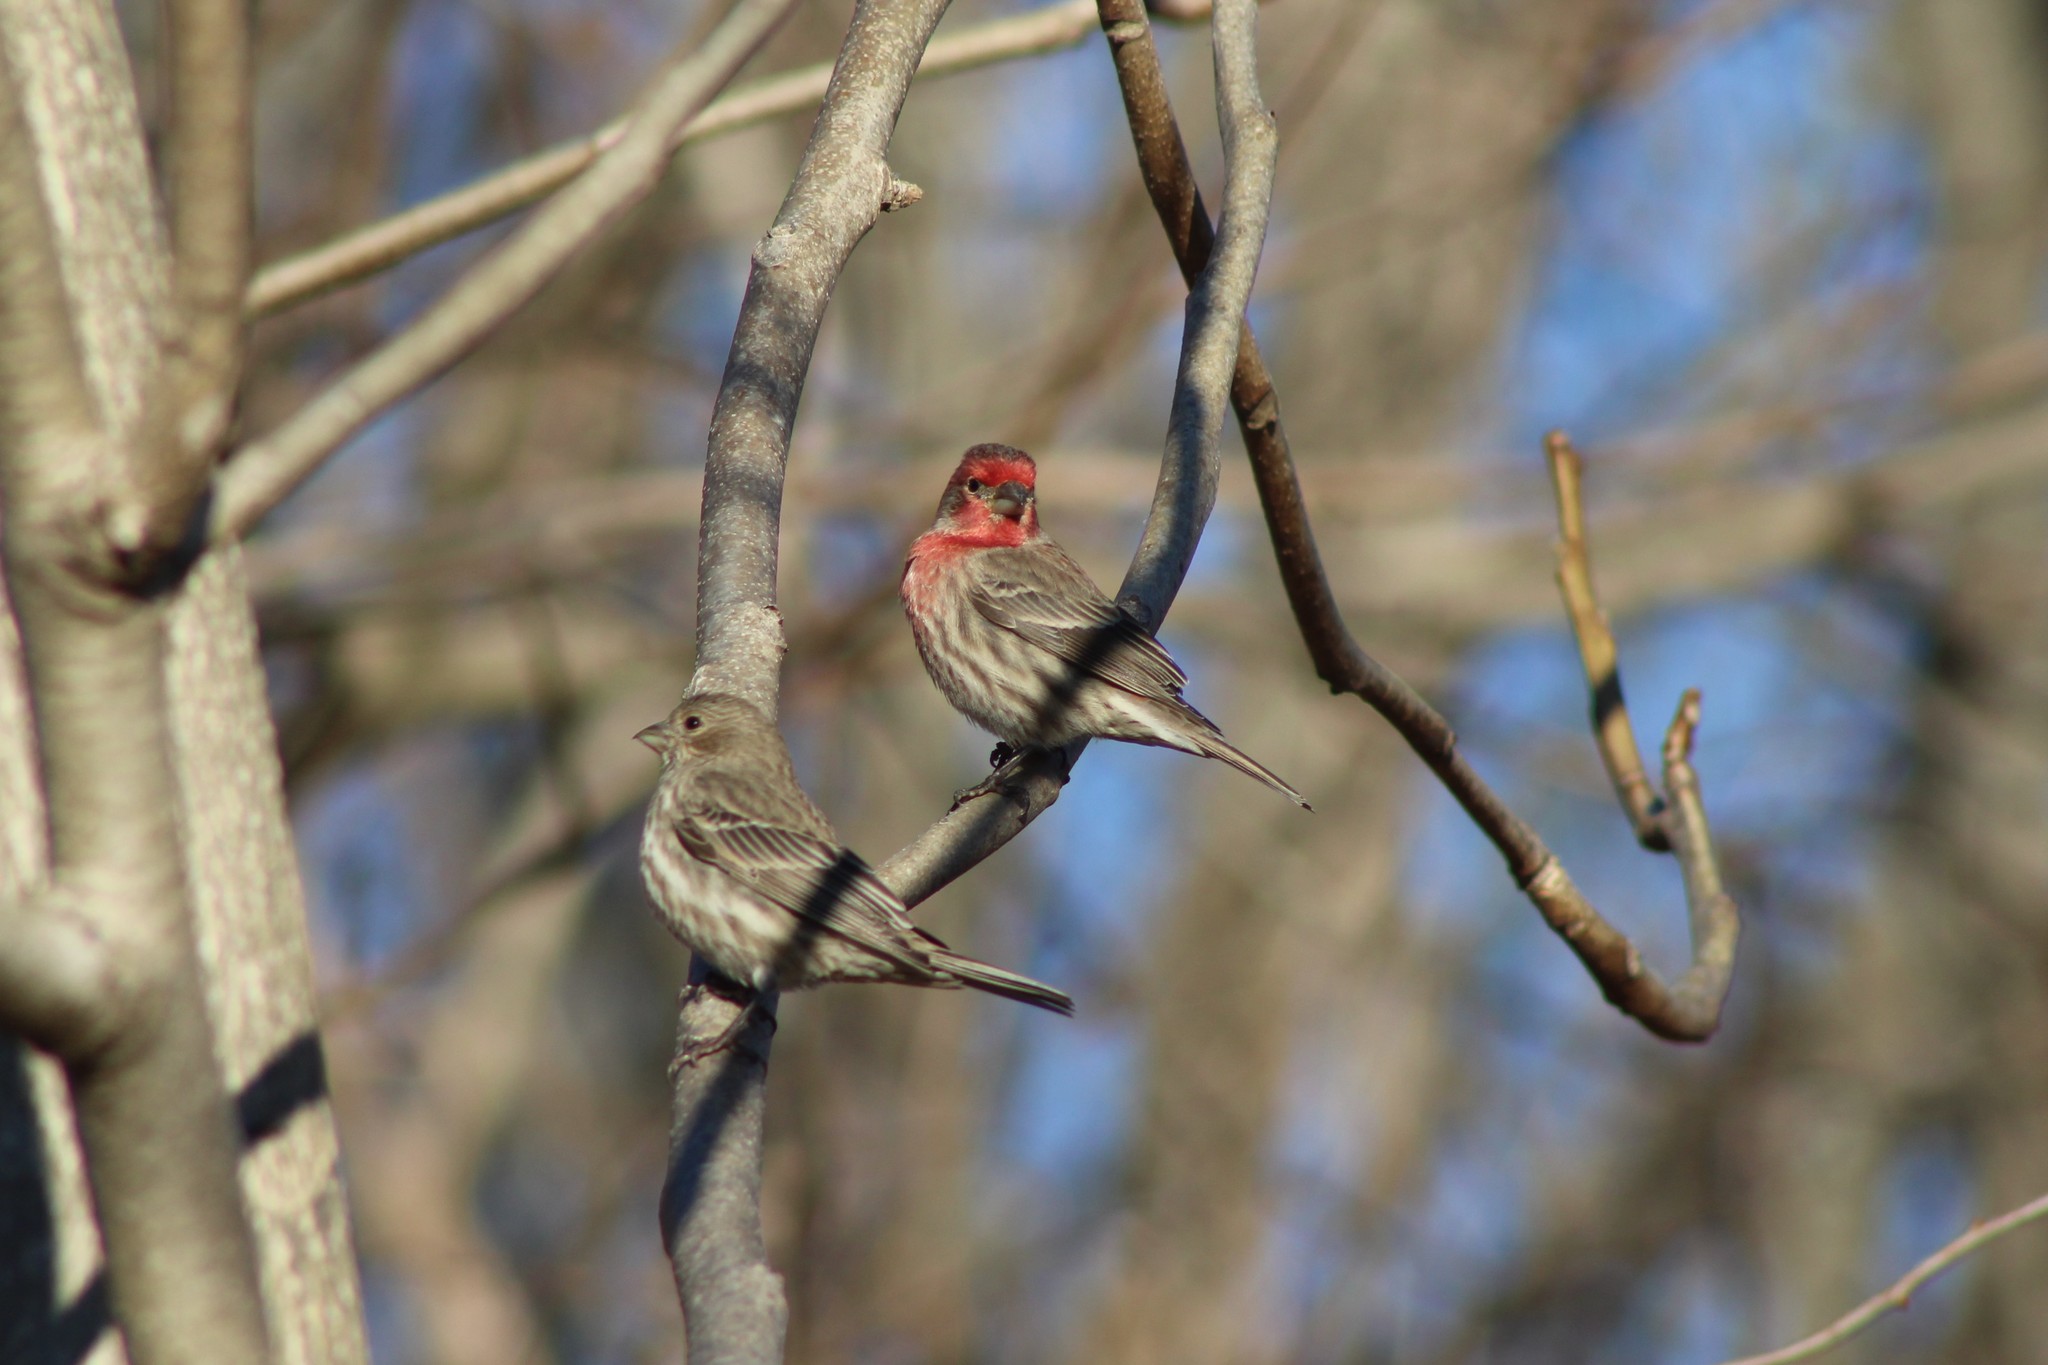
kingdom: Animalia
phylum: Chordata
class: Aves
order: Passeriformes
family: Fringillidae
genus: Haemorhous
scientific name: Haemorhous mexicanus
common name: House finch
